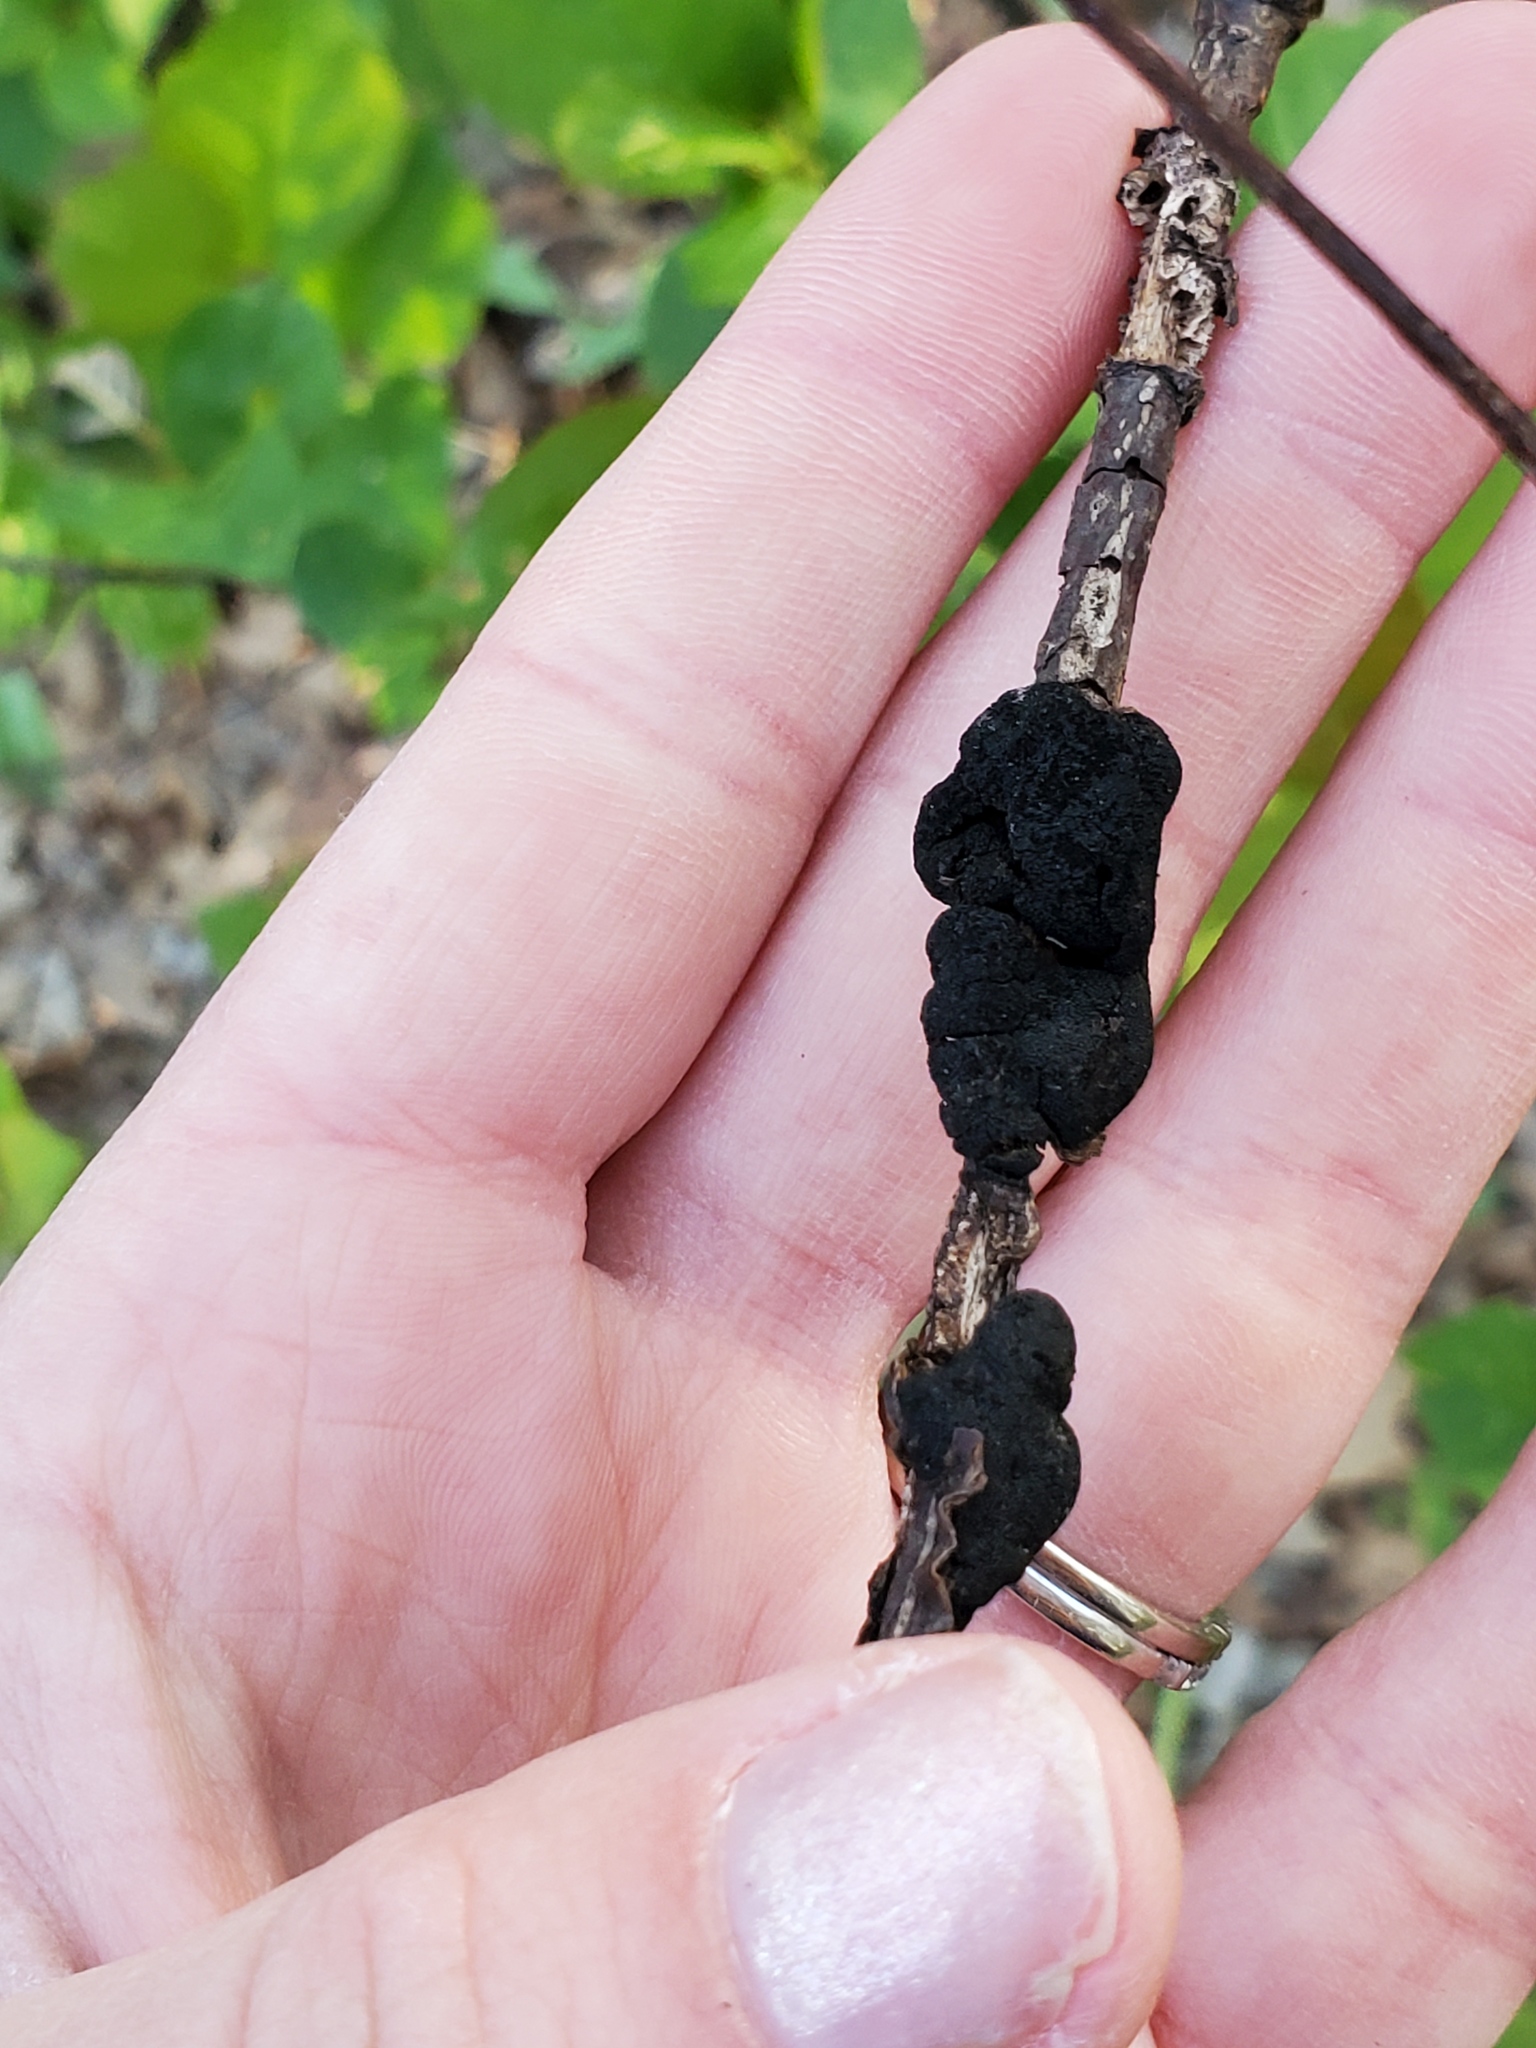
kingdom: Fungi
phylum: Ascomycota
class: Dothideomycetes
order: Venturiales
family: Venturiaceae
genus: Apiosporina
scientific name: Apiosporina morbosa
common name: Black knot
